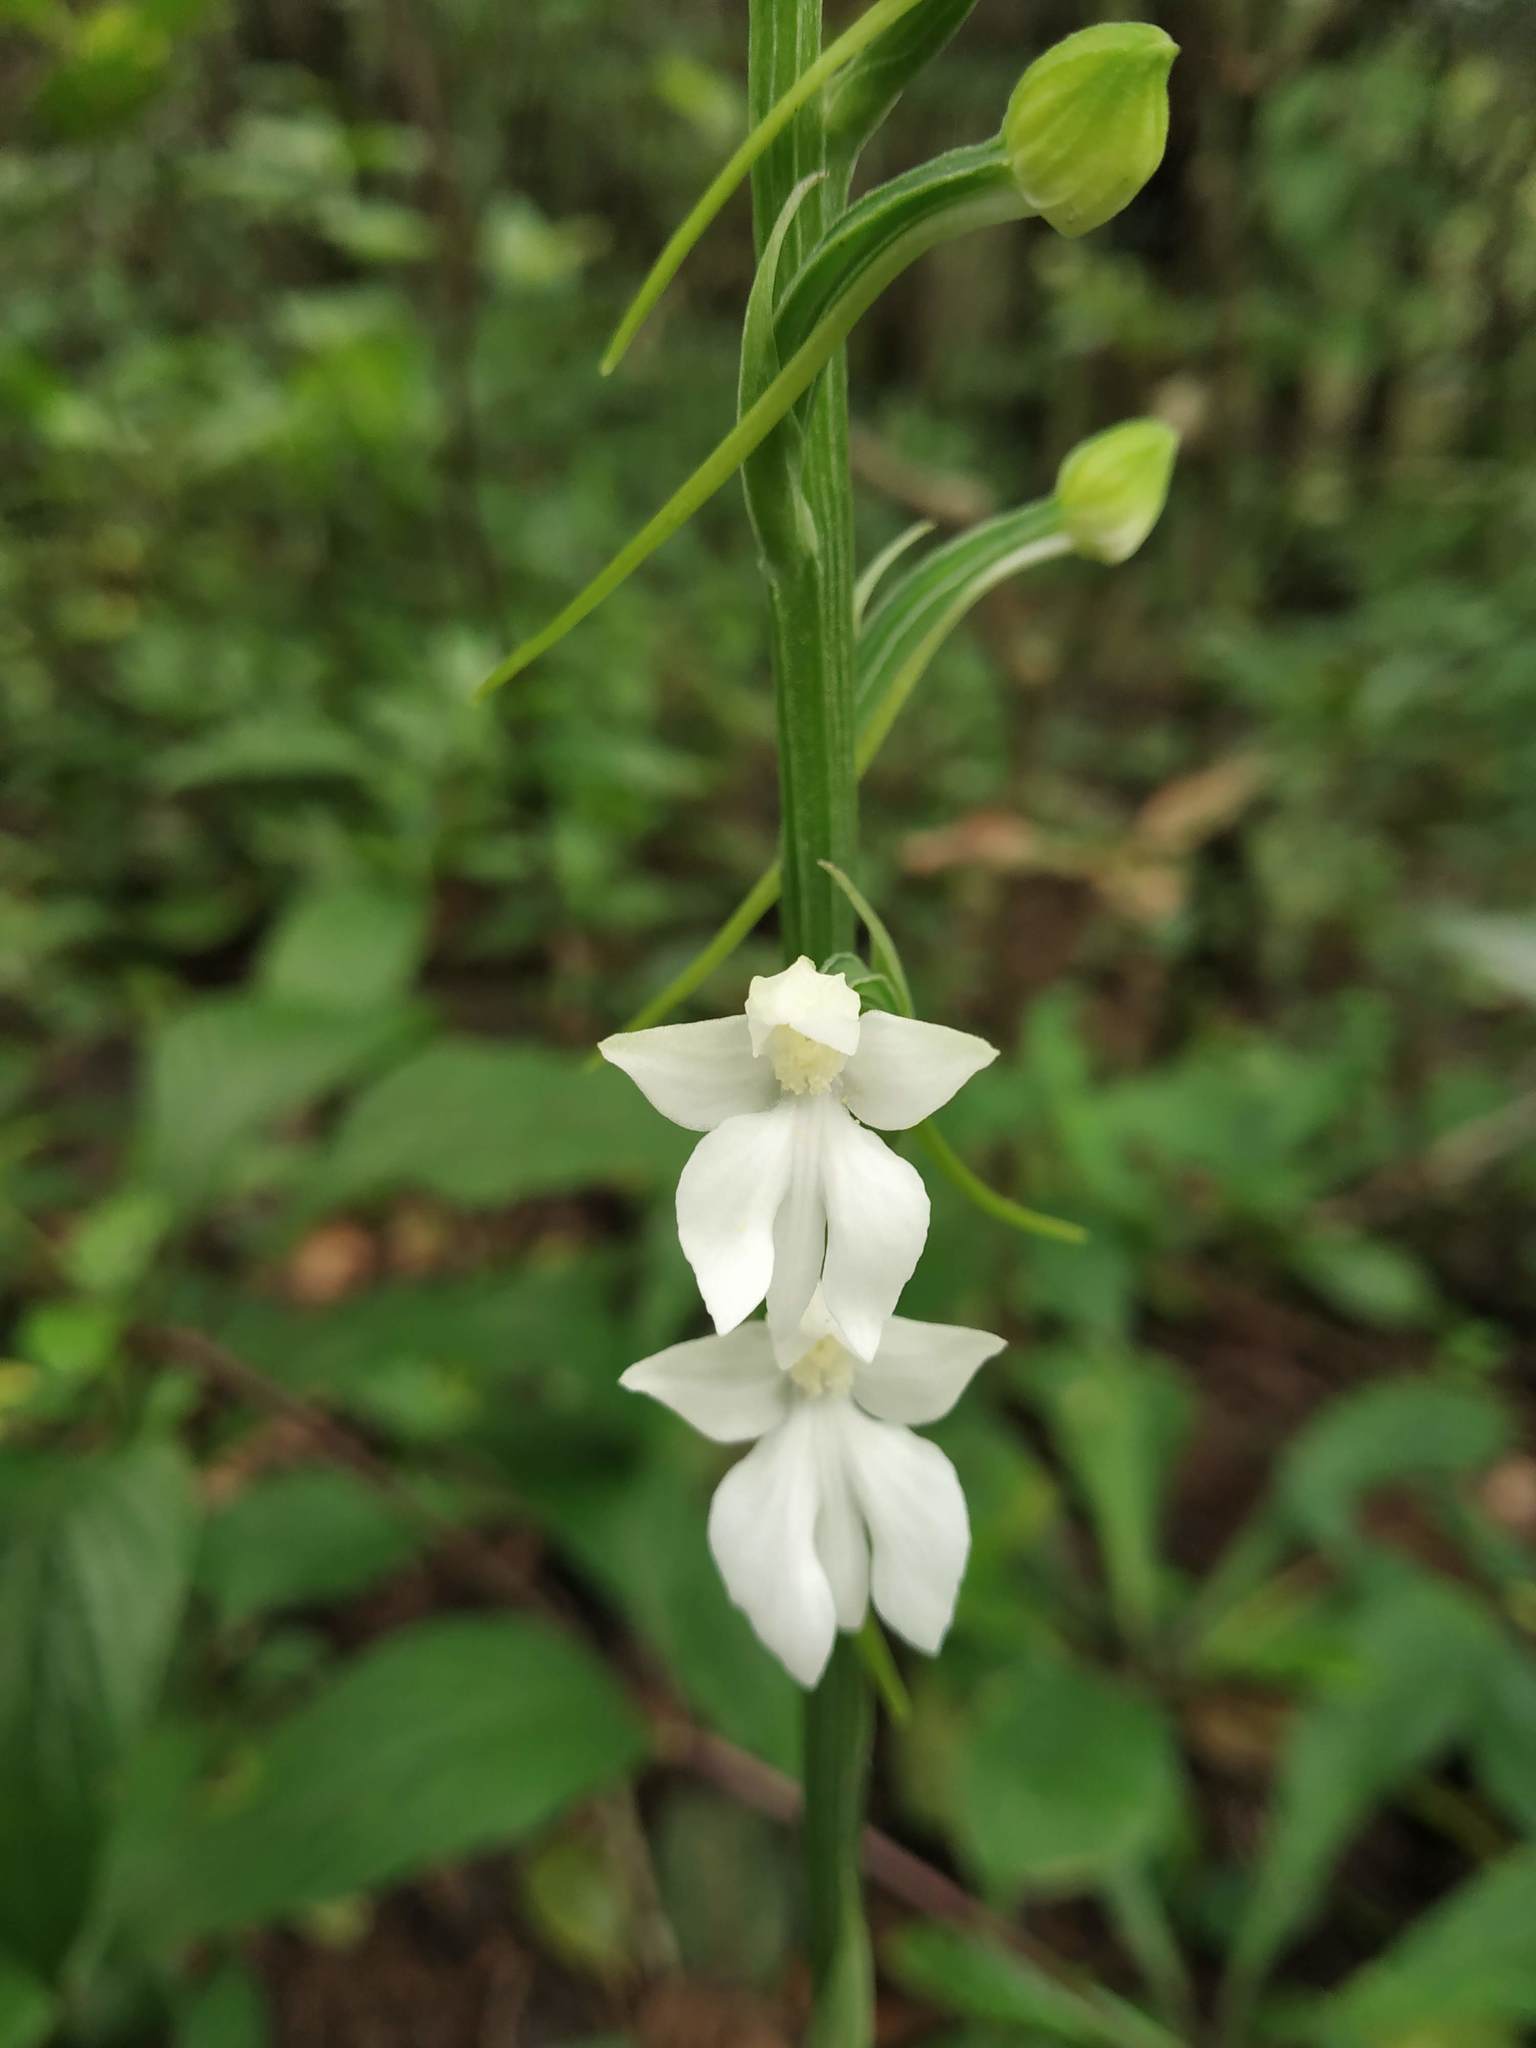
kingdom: Plantae
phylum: Tracheophyta
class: Liliopsida
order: Asparagales
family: Orchidaceae
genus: Habenaria
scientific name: Habenaria plantaginea
